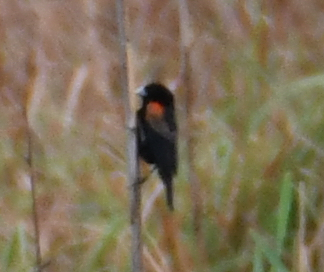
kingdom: Animalia
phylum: Chordata
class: Aves
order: Passeriformes
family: Ploceidae
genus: Euplectes
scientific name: Euplectes axillaris
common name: Fan-tailed widowbird
